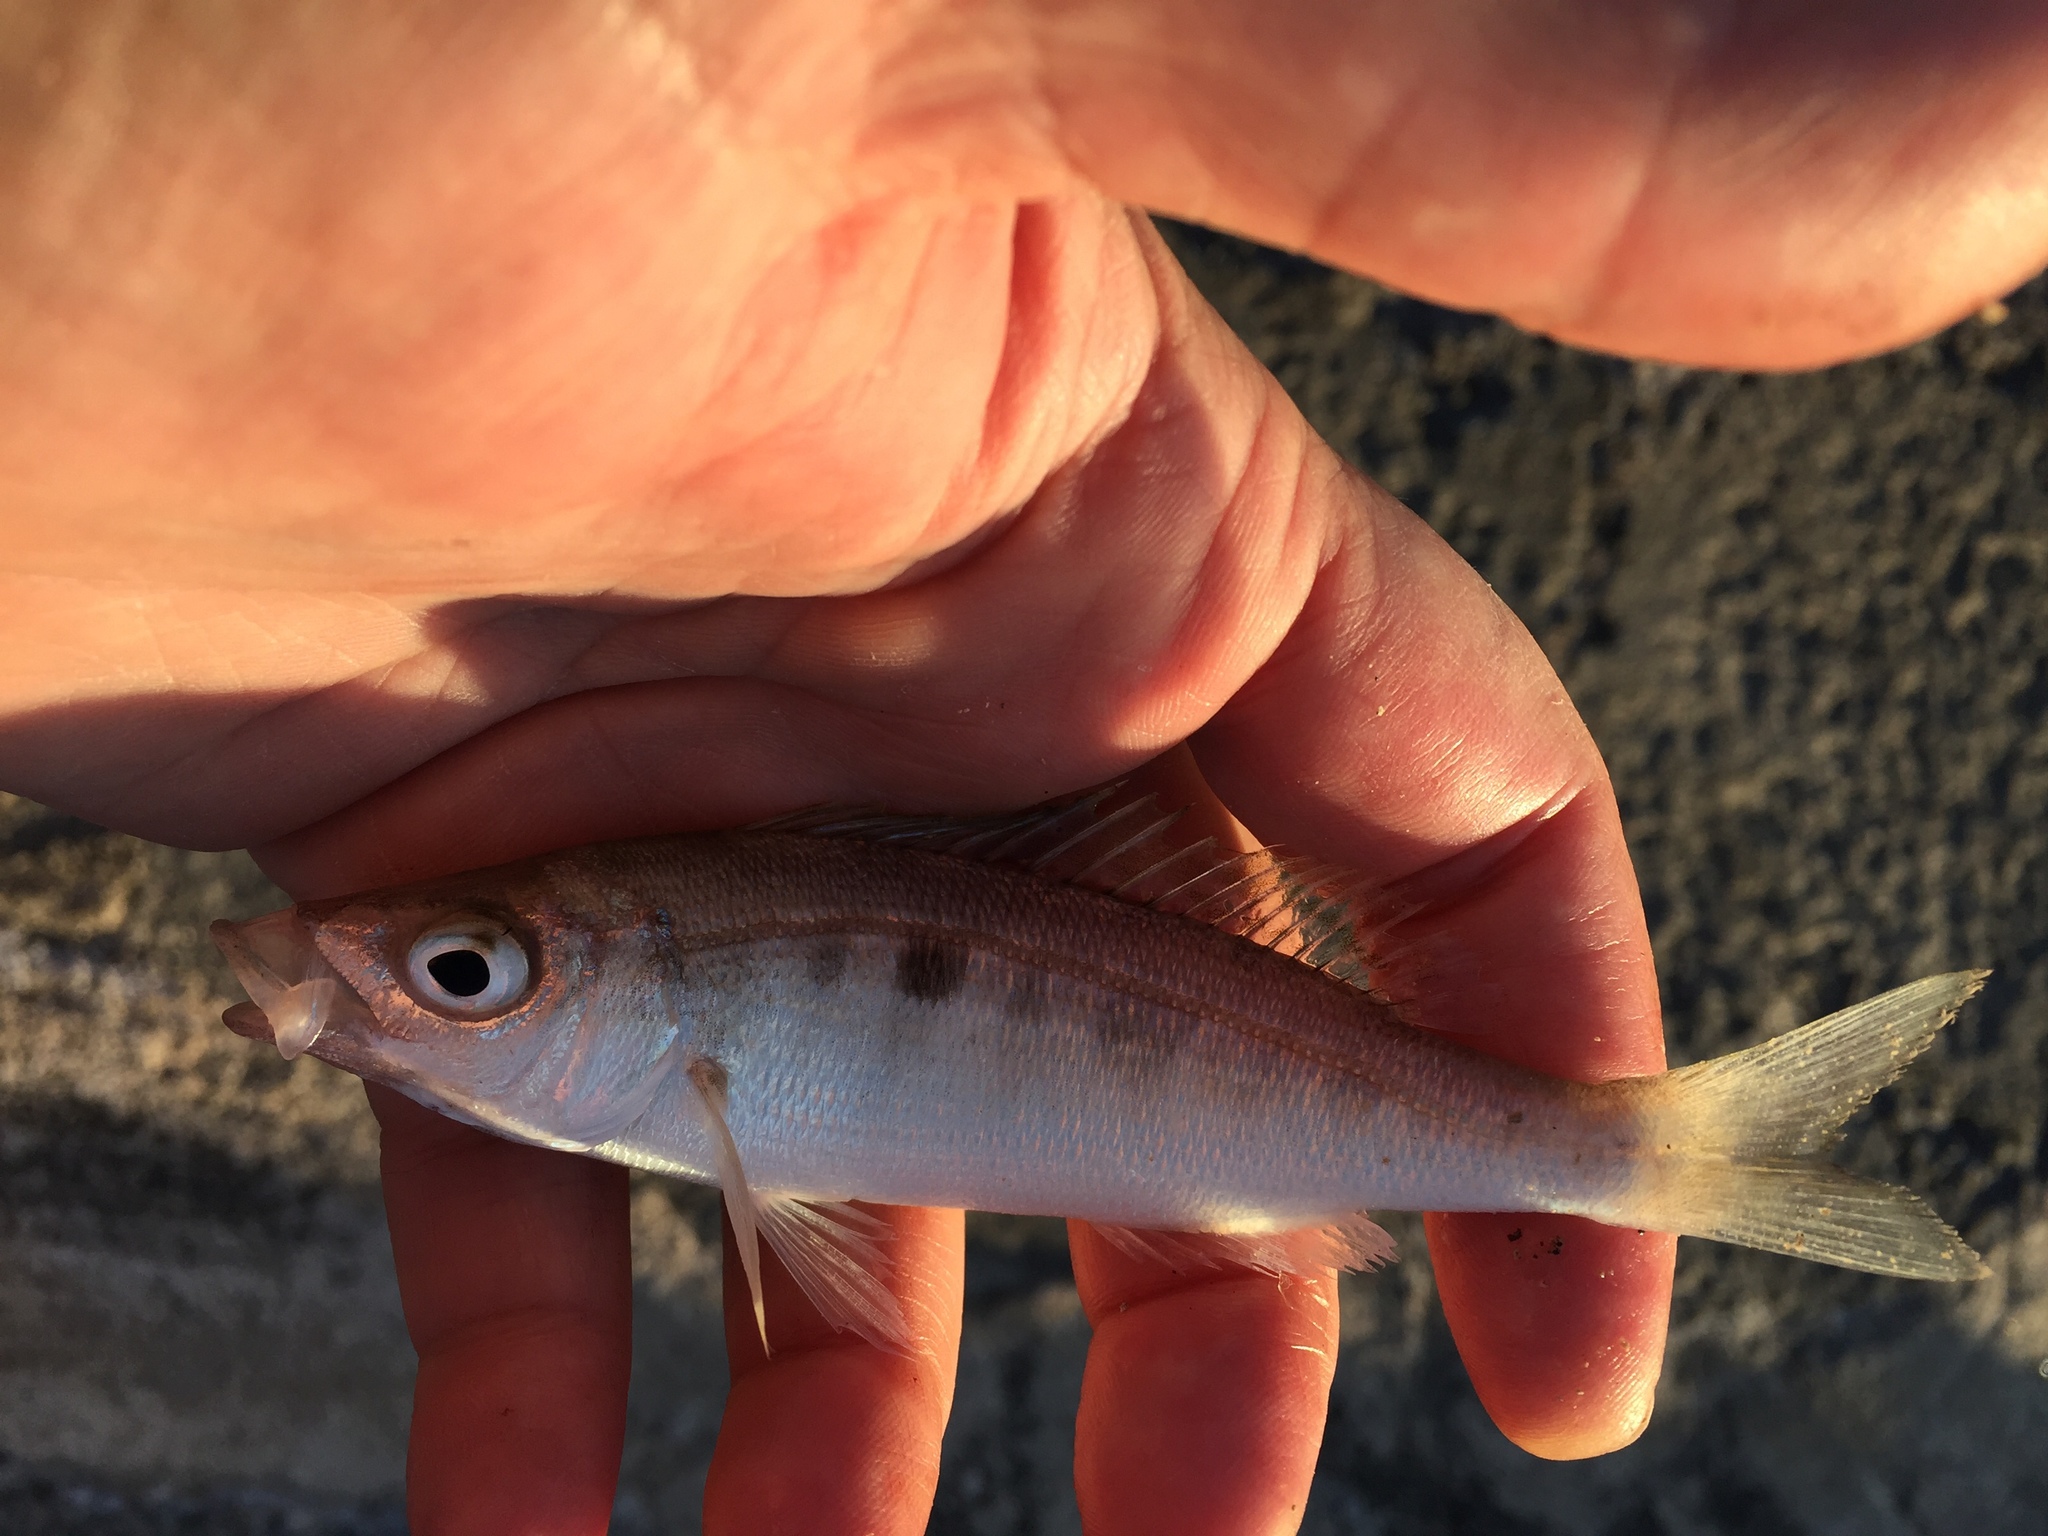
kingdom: Animalia
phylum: Chordata
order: Perciformes
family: Sparidae
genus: Spicara
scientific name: Spicara smaris
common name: Picarel
